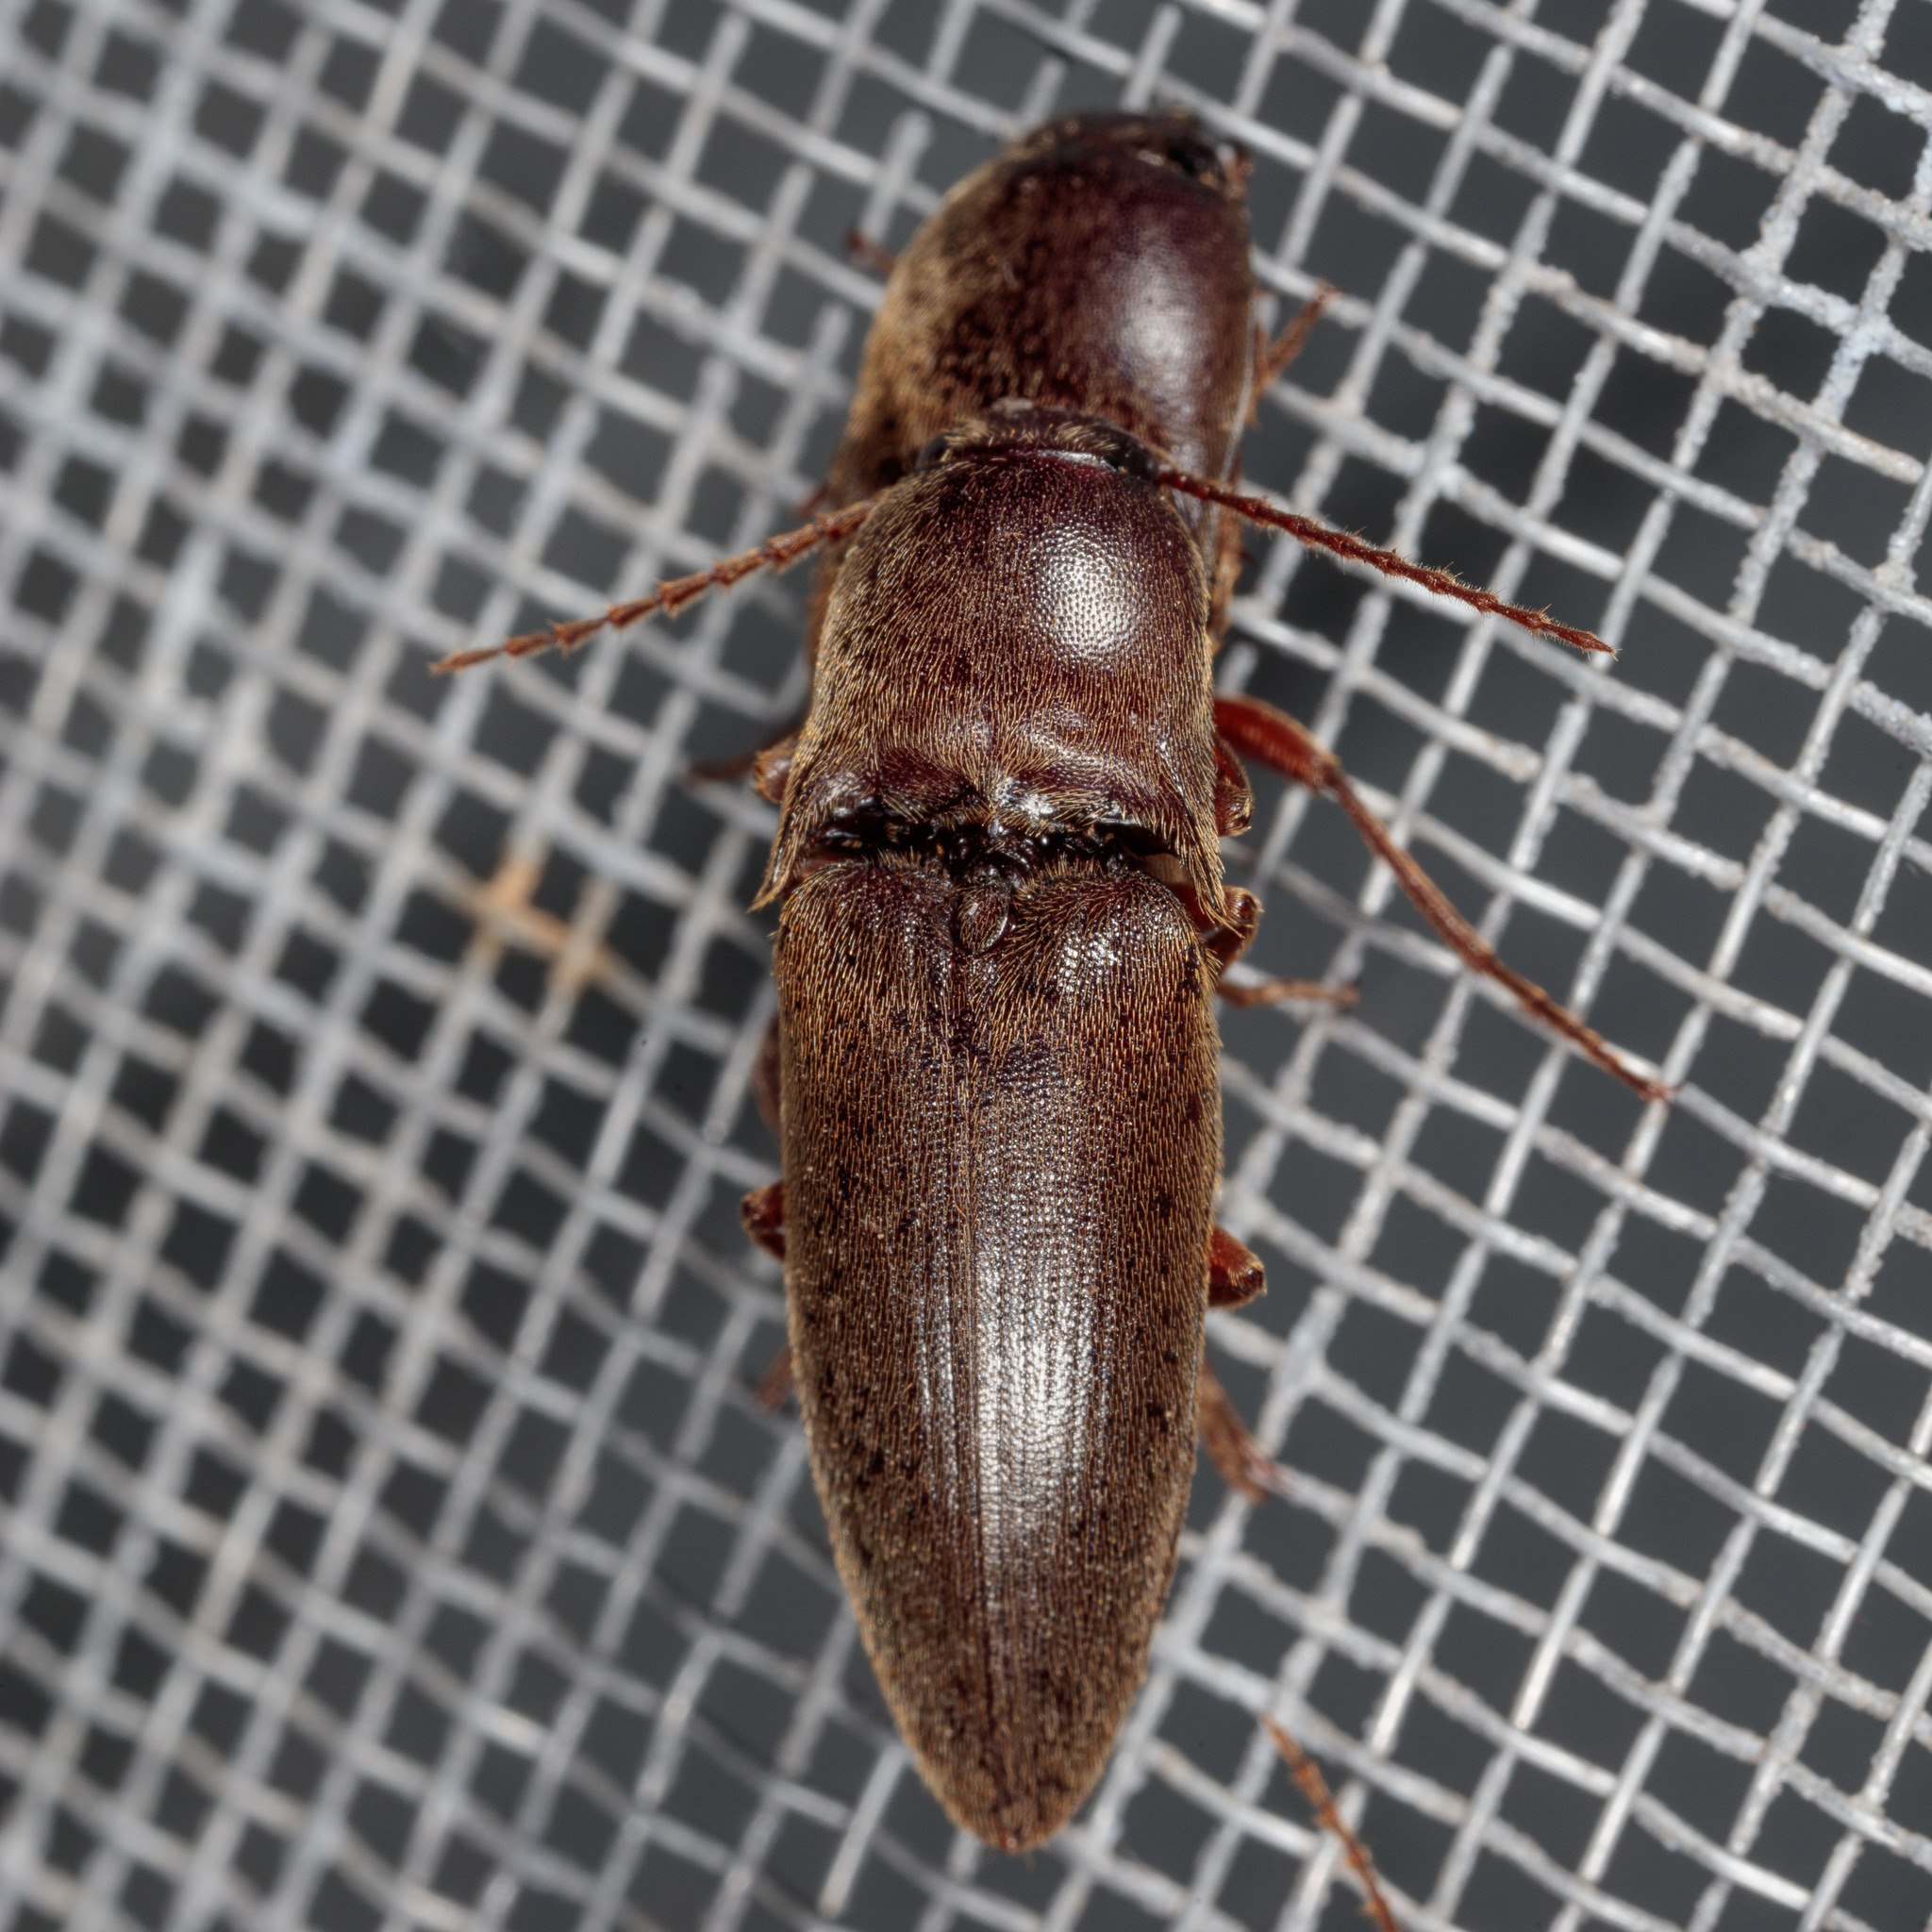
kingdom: Animalia
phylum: Arthropoda
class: Insecta
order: Coleoptera
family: Elateridae
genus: Diplostethus
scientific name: Diplostethus
